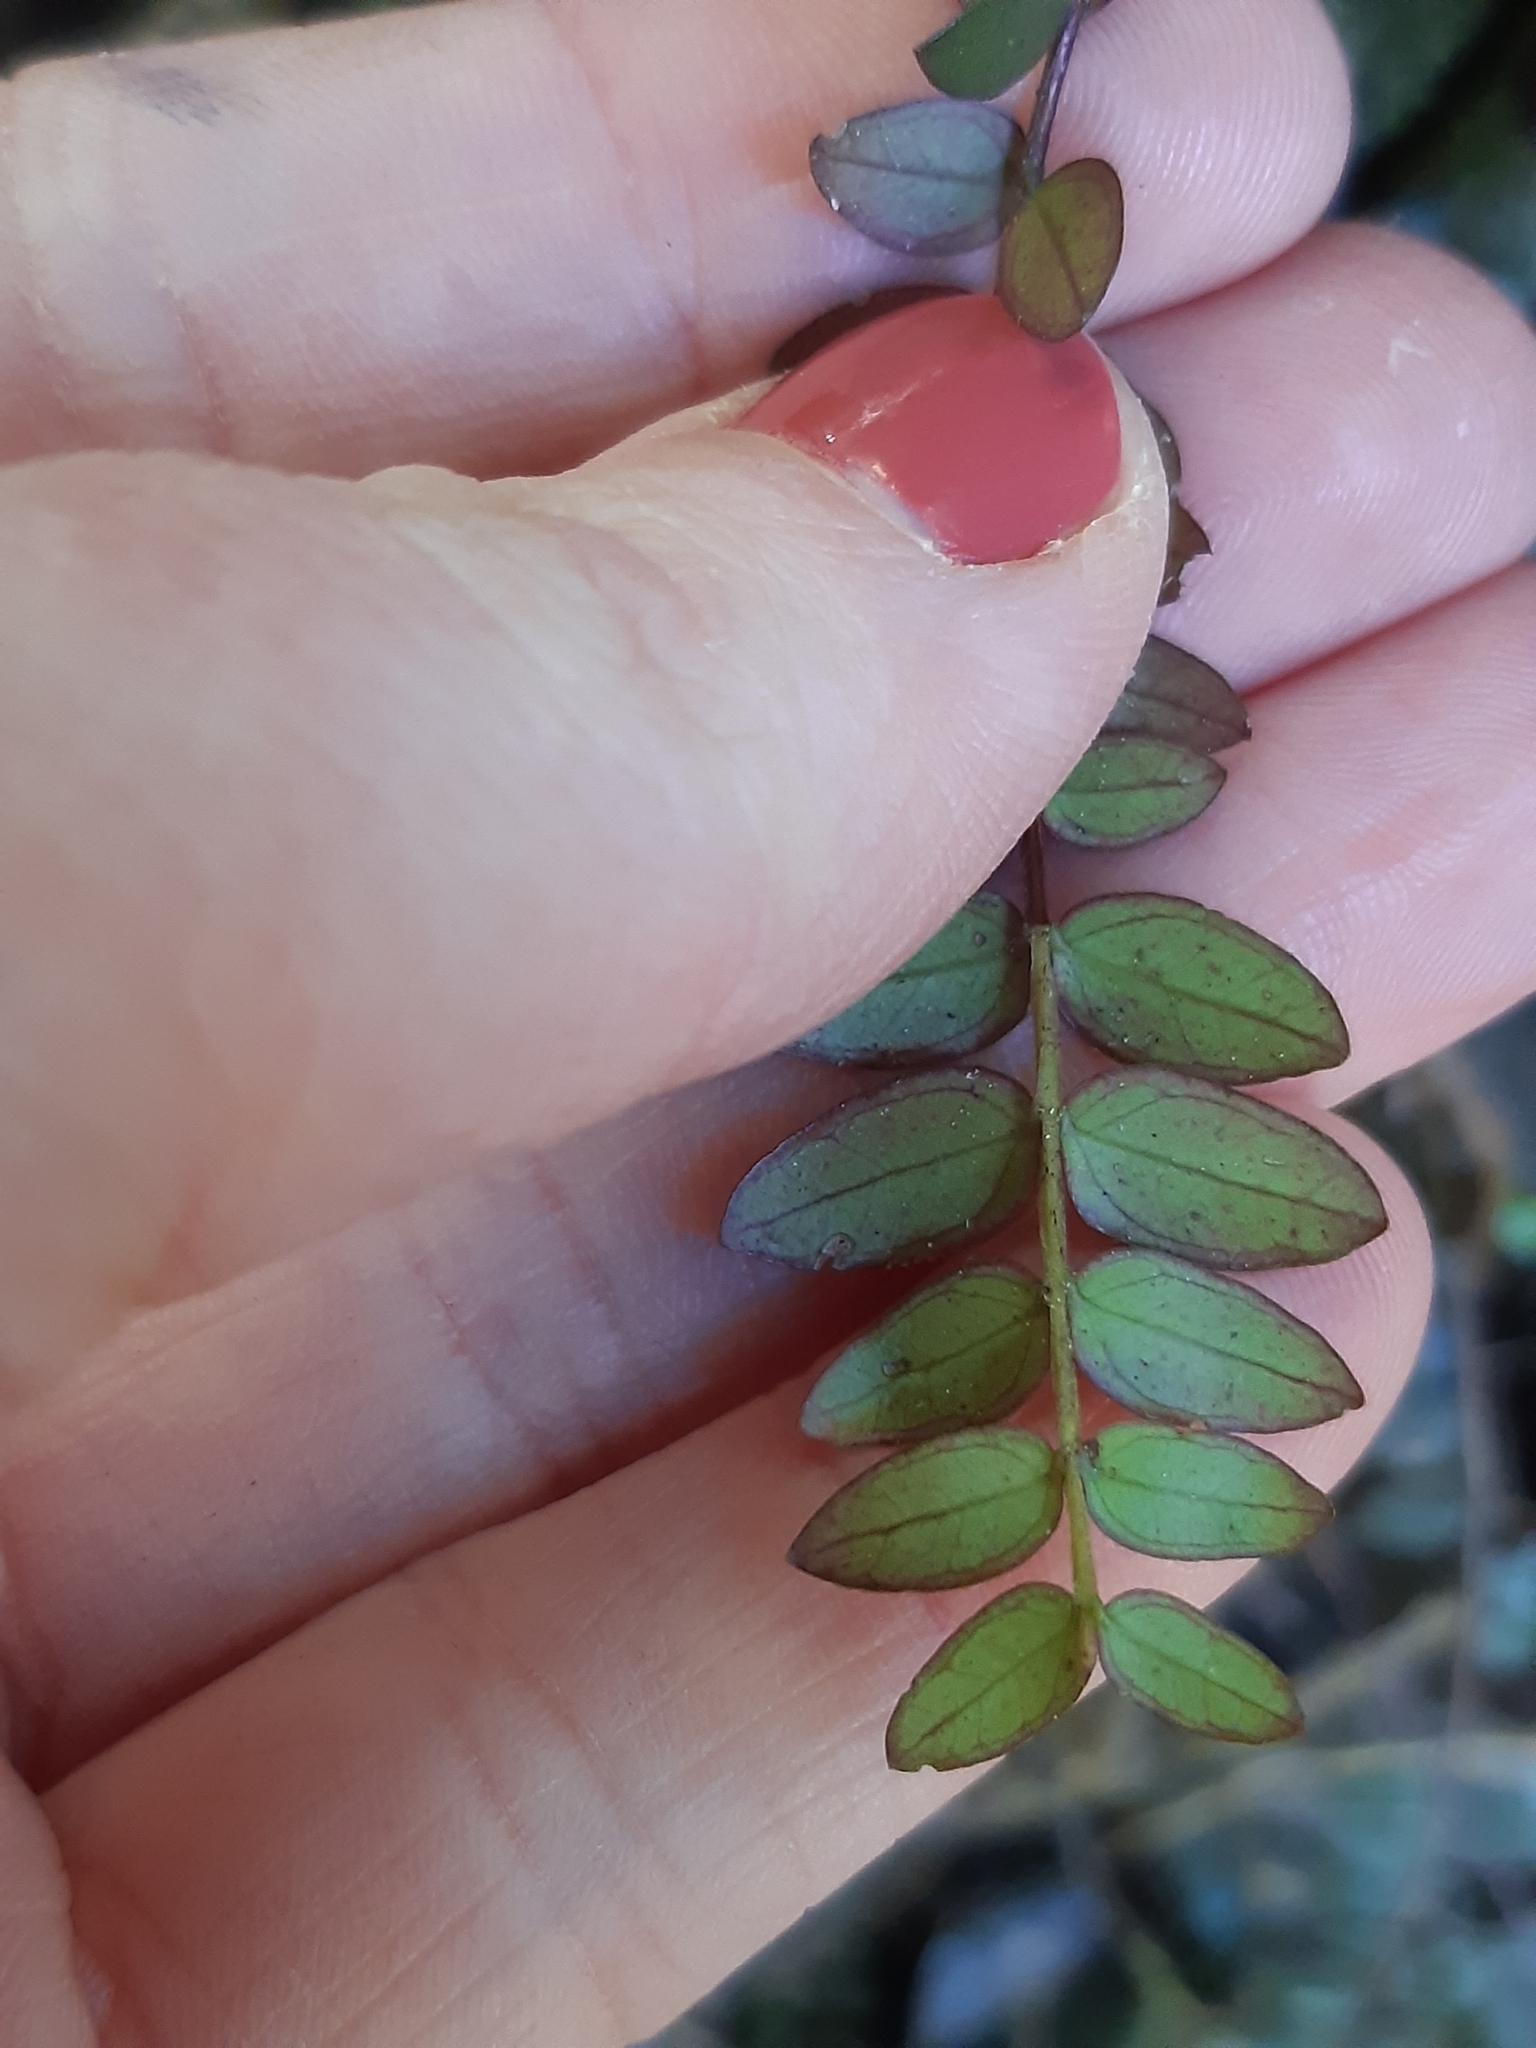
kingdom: Plantae
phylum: Tracheophyta
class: Magnoliopsida
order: Myrtales
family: Myrtaceae
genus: Metrosideros
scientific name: Metrosideros diffusa
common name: Small ratavine
